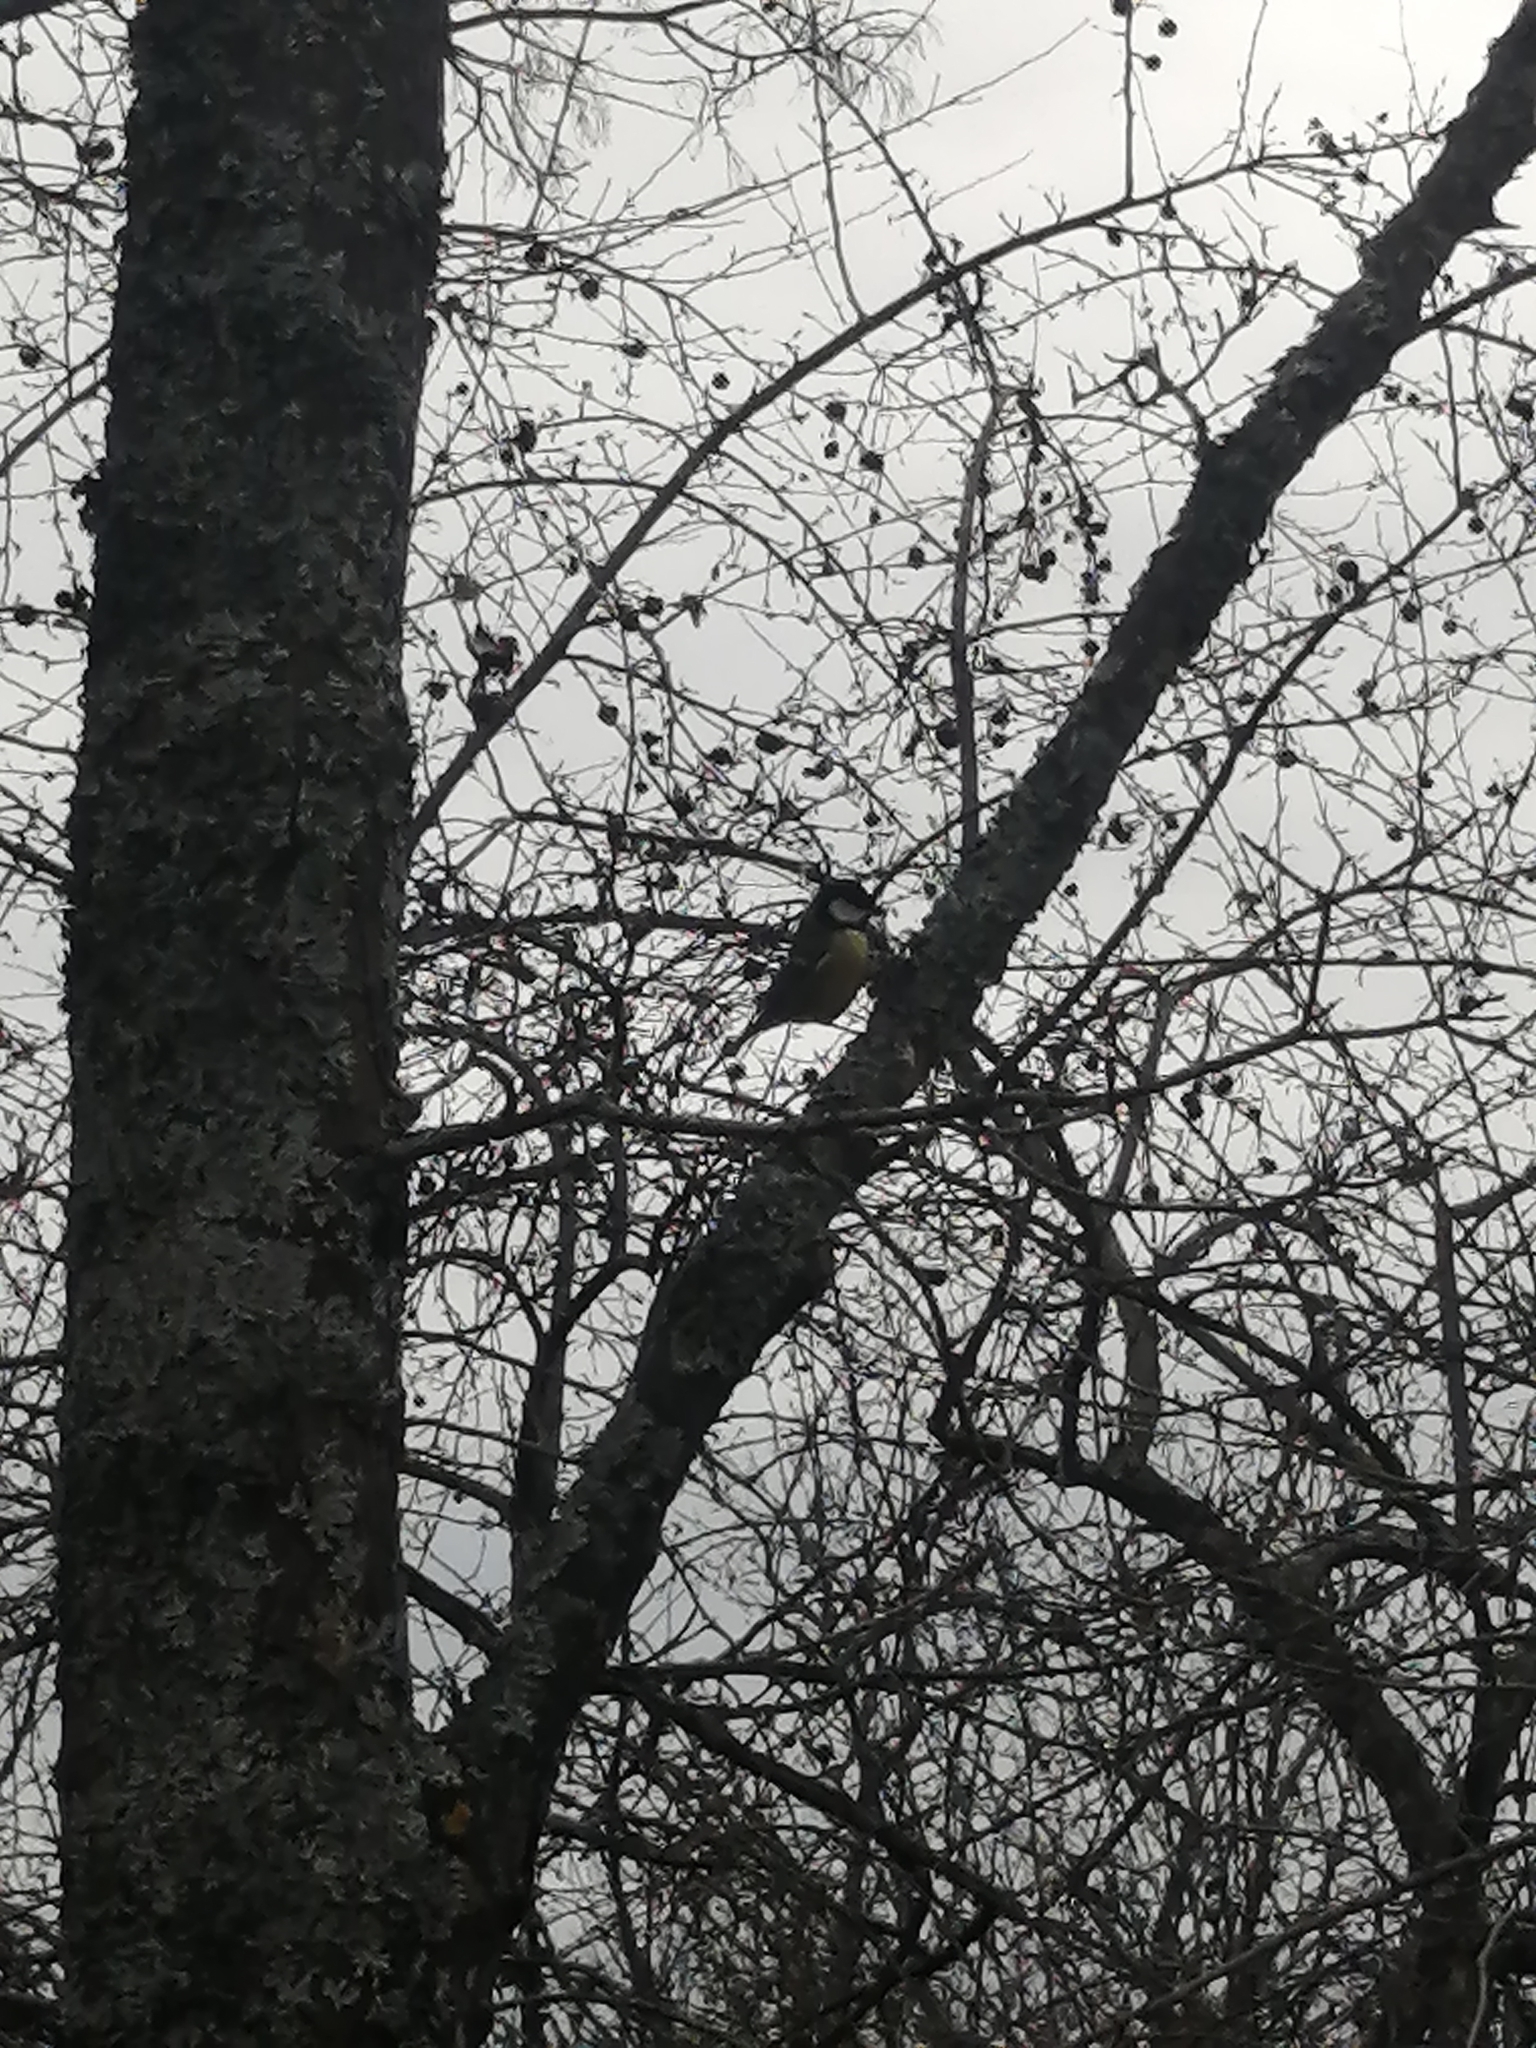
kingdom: Animalia
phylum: Chordata
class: Aves
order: Passeriformes
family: Paridae
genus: Parus
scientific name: Parus major
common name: Great tit
